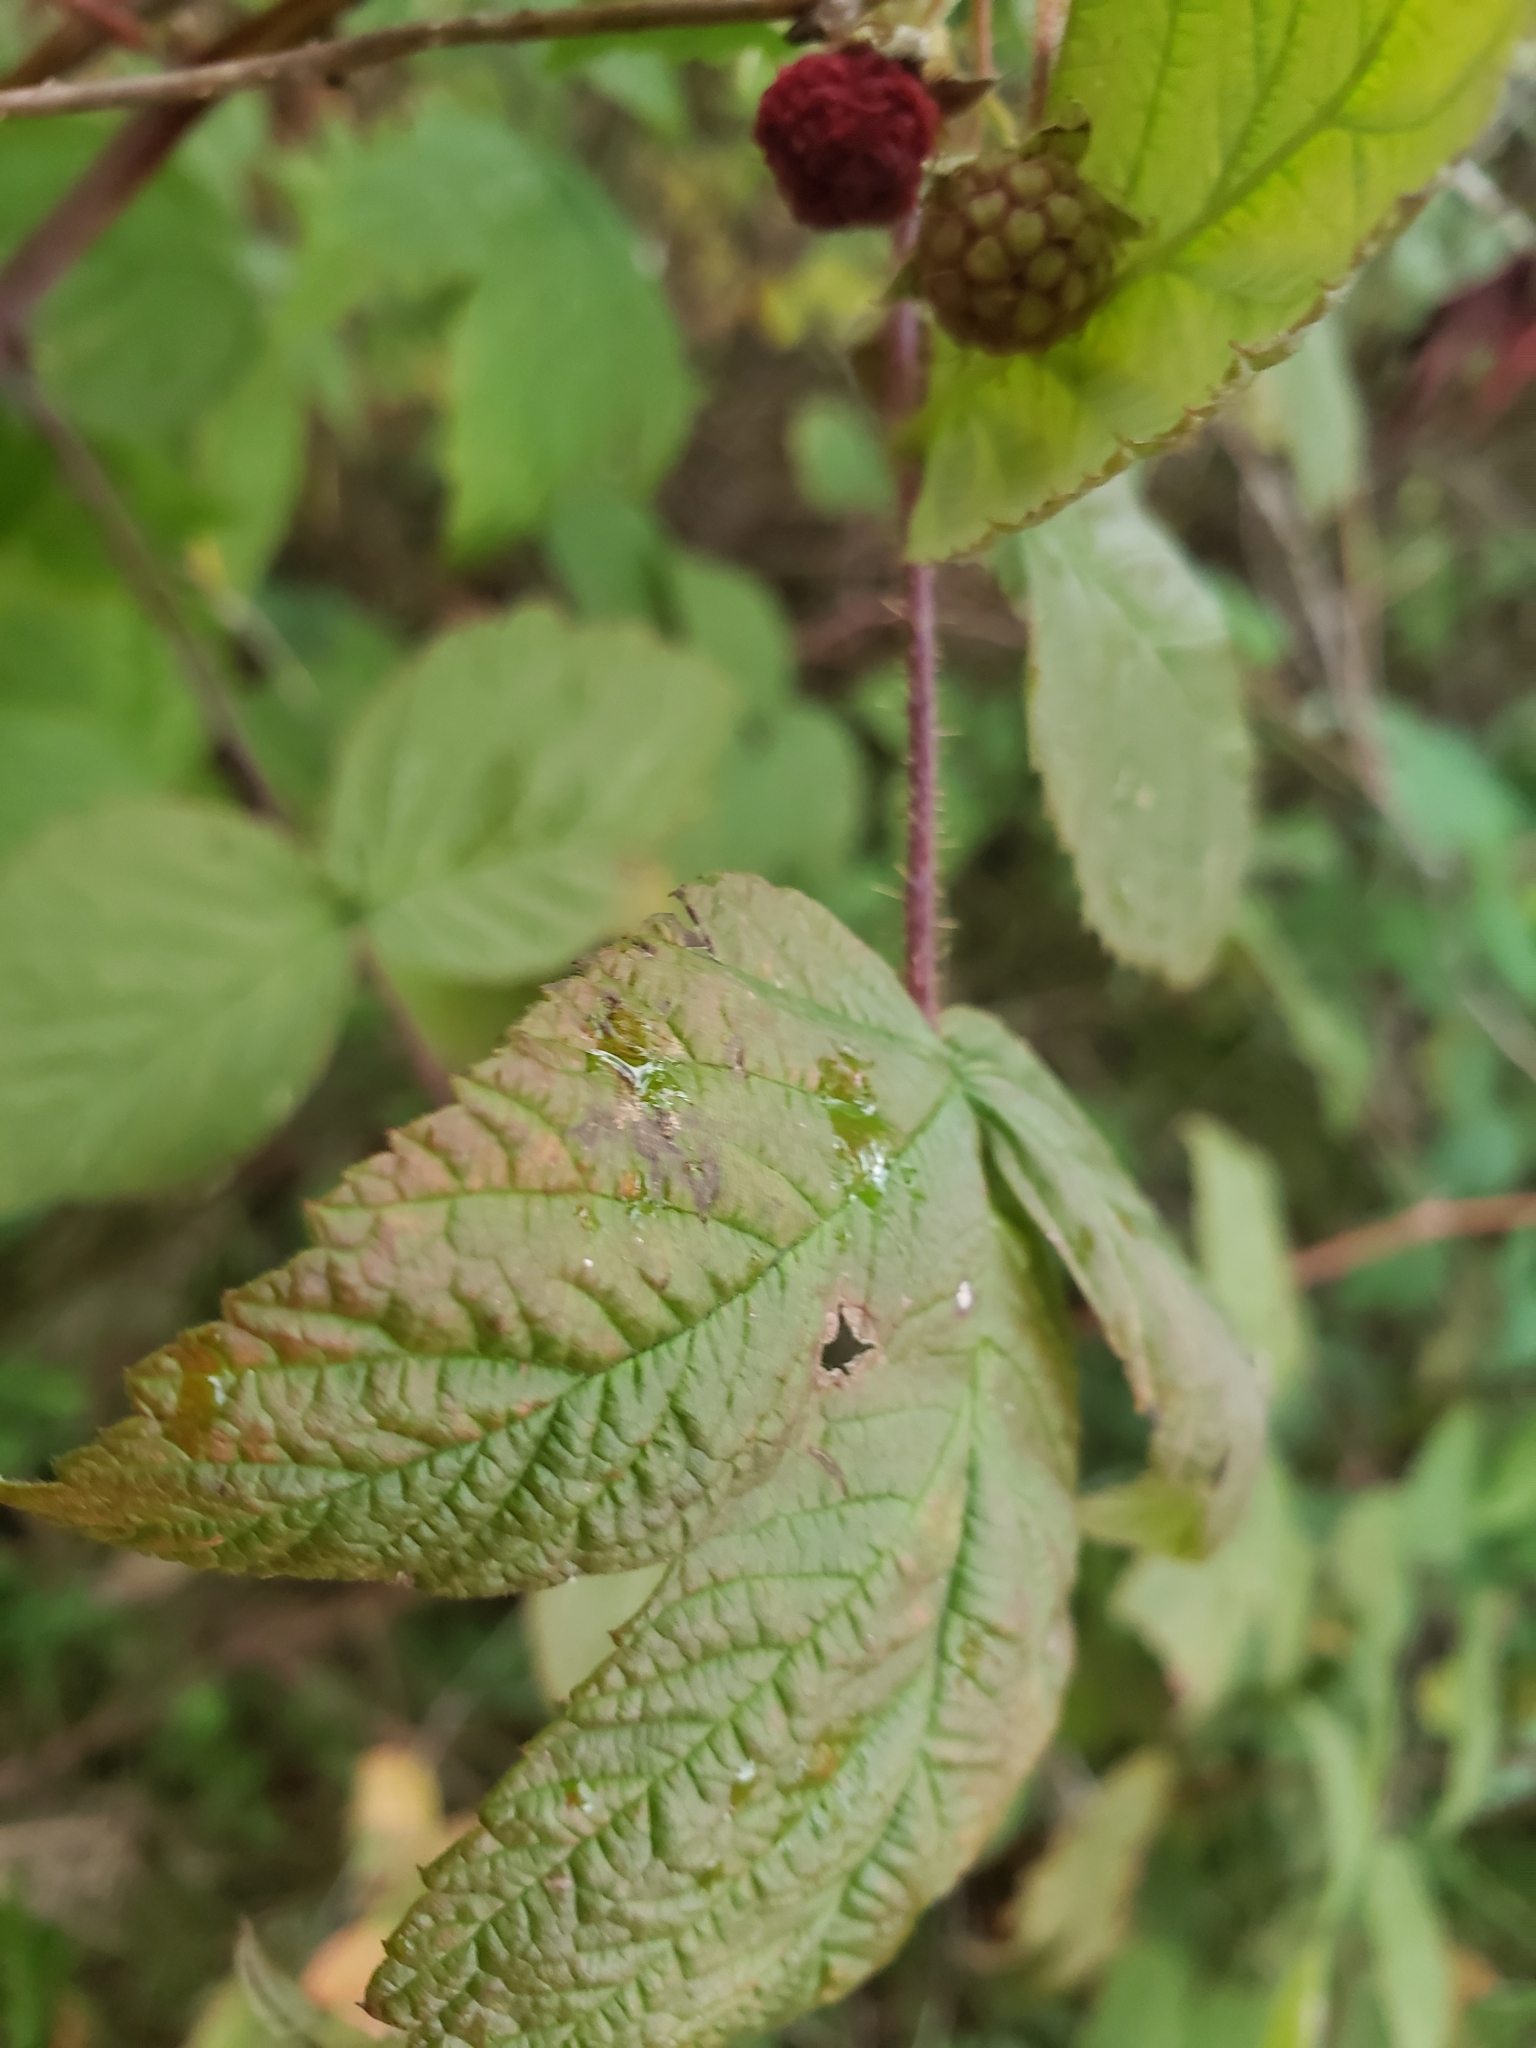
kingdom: Plantae
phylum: Tracheophyta
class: Magnoliopsida
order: Rosales
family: Rosaceae
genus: Rubus
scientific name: Rubus idaeus
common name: Raspberry
